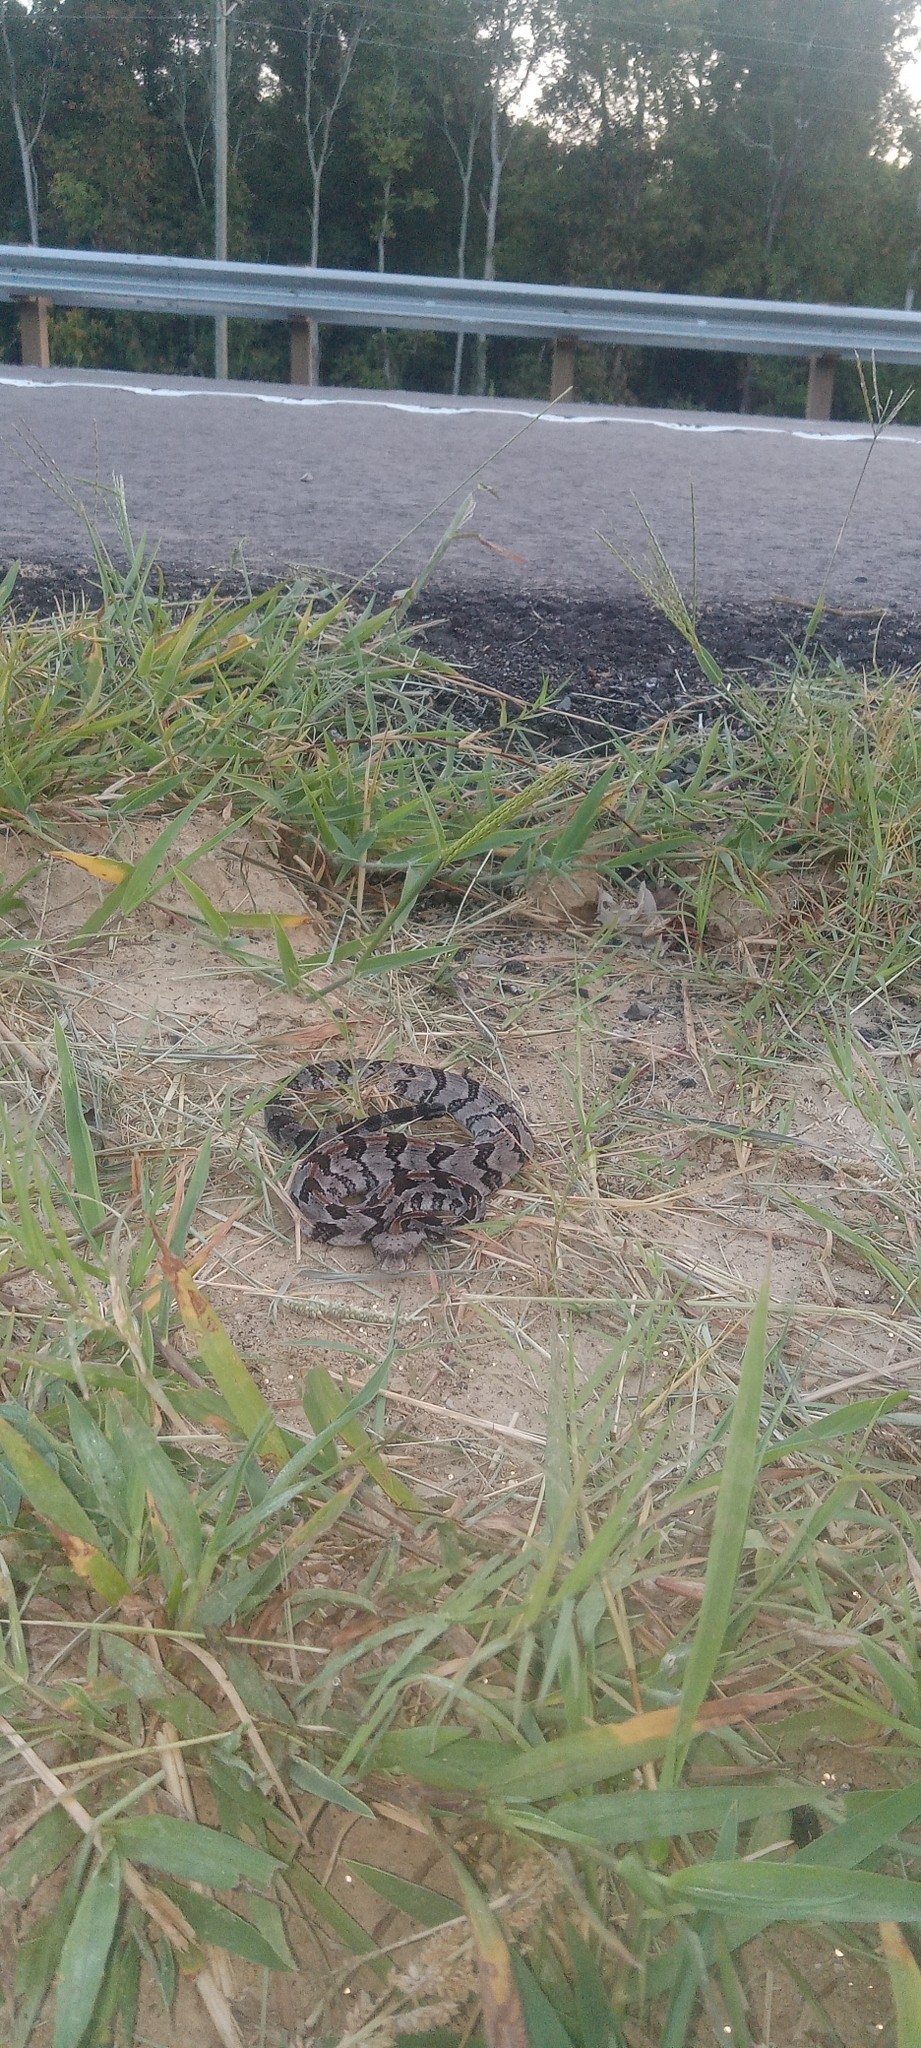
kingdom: Animalia
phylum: Chordata
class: Squamata
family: Viperidae
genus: Crotalus
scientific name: Crotalus horridus
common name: Timber rattlesnake
